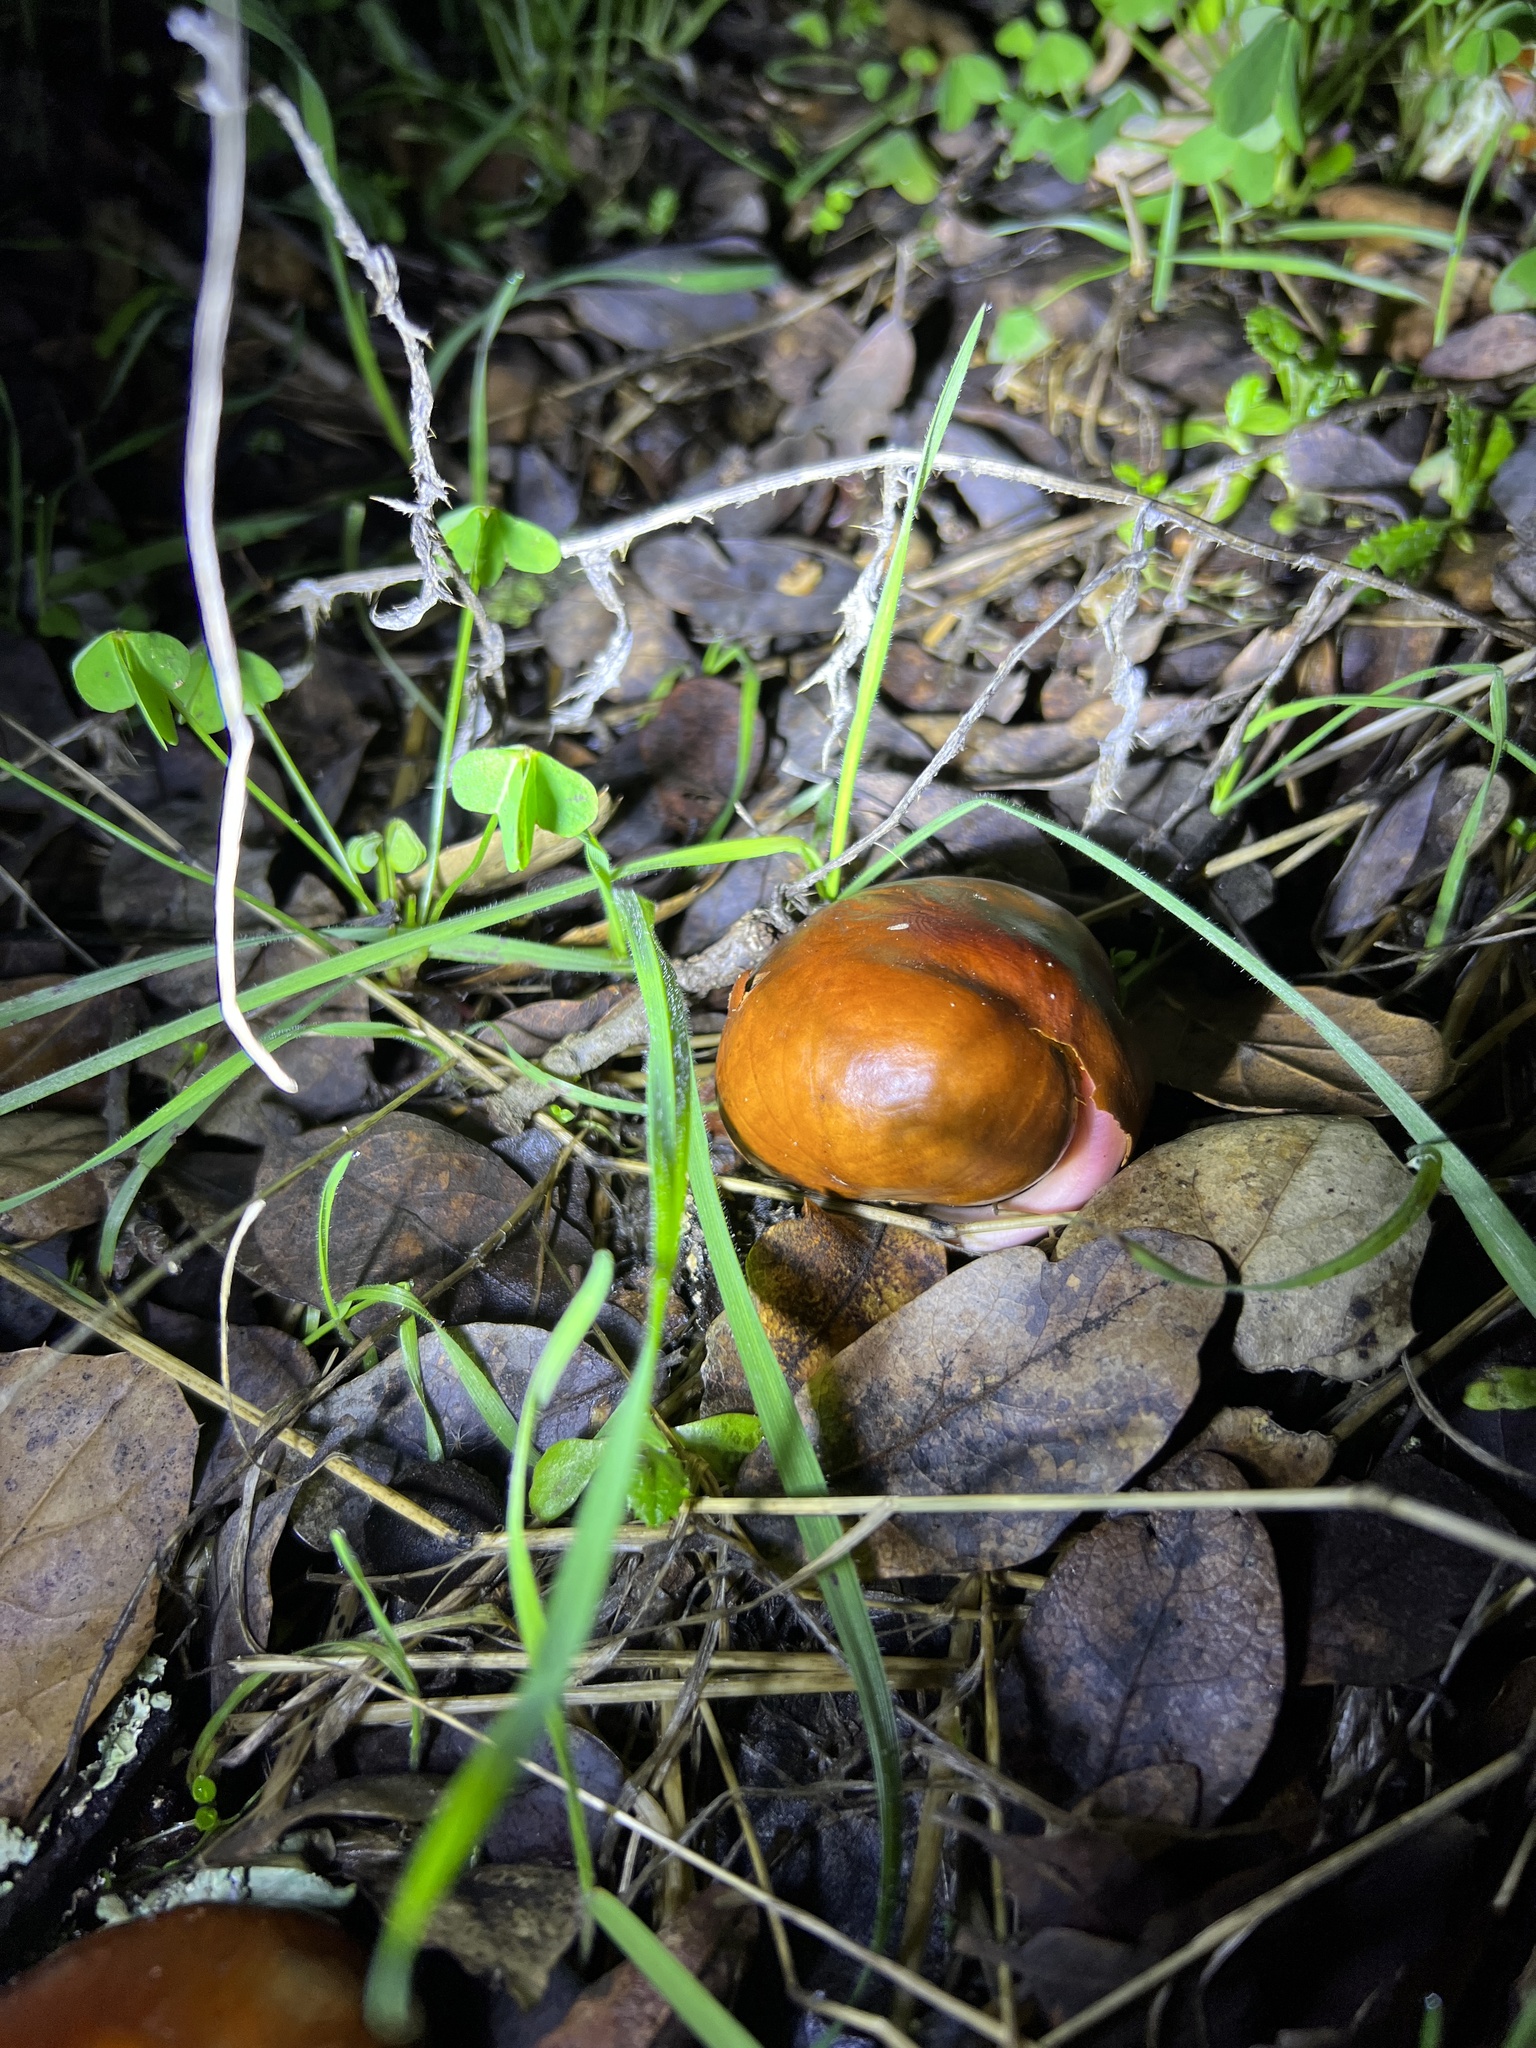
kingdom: Plantae
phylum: Tracheophyta
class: Magnoliopsida
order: Sapindales
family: Sapindaceae
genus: Aesculus
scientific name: Aesculus californica
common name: California buckeye
